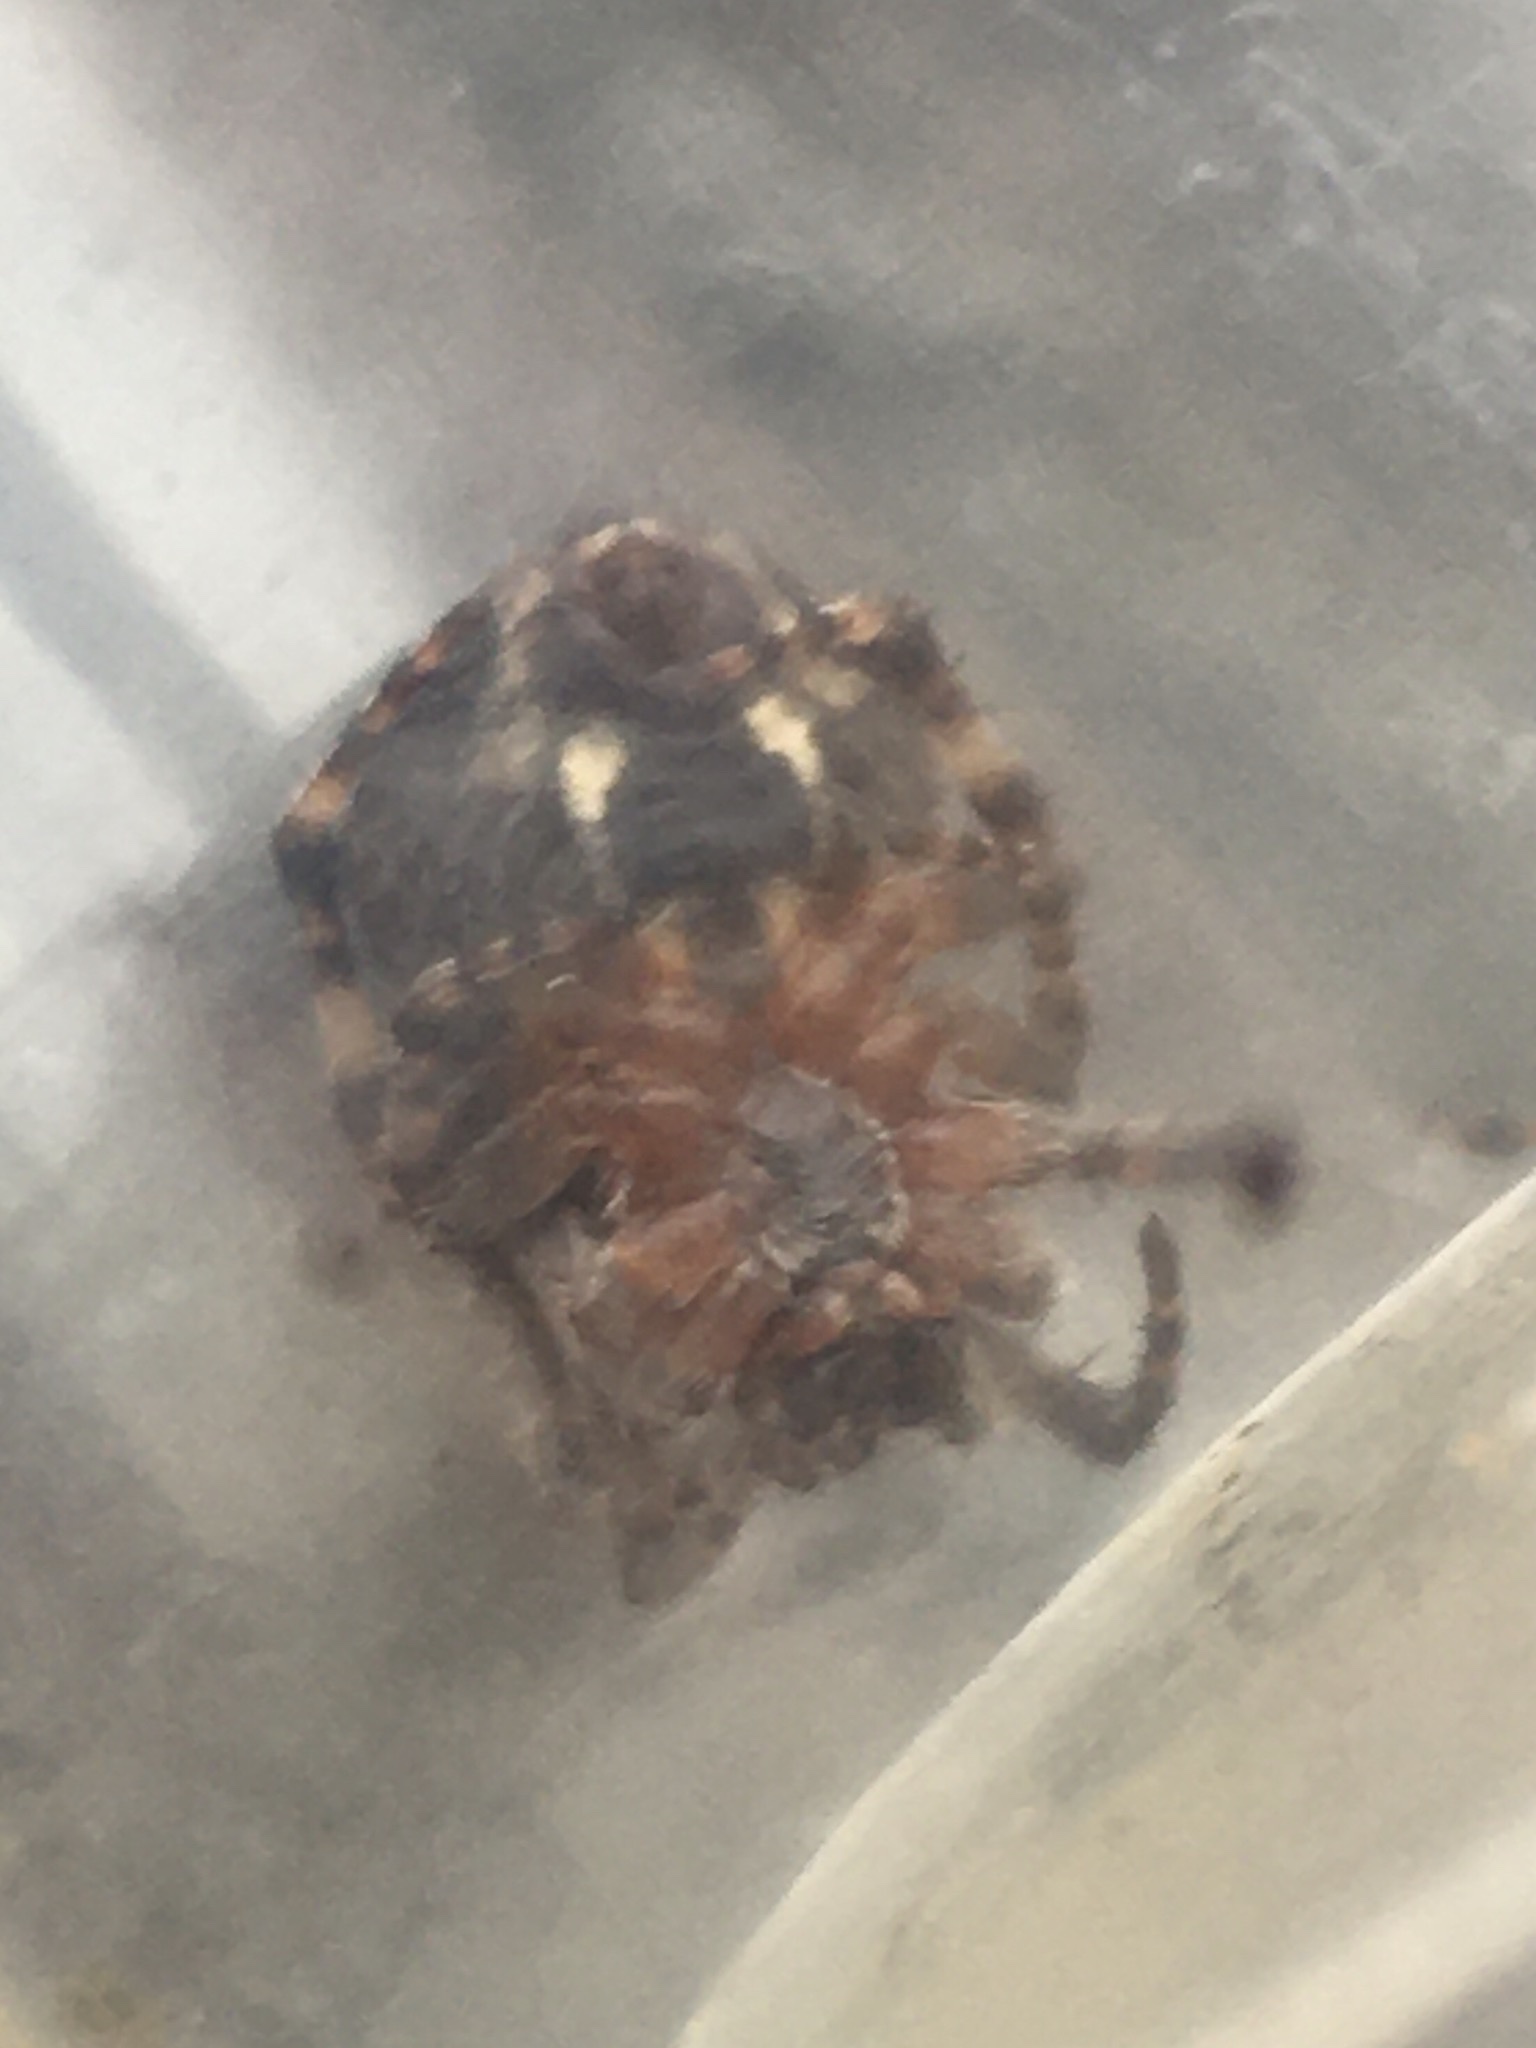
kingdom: Animalia
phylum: Arthropoda
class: Arachnida
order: Araneae
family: Araneidae
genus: Larinioides
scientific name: Larinioides patagiatus
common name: Ornamental orbweaver
